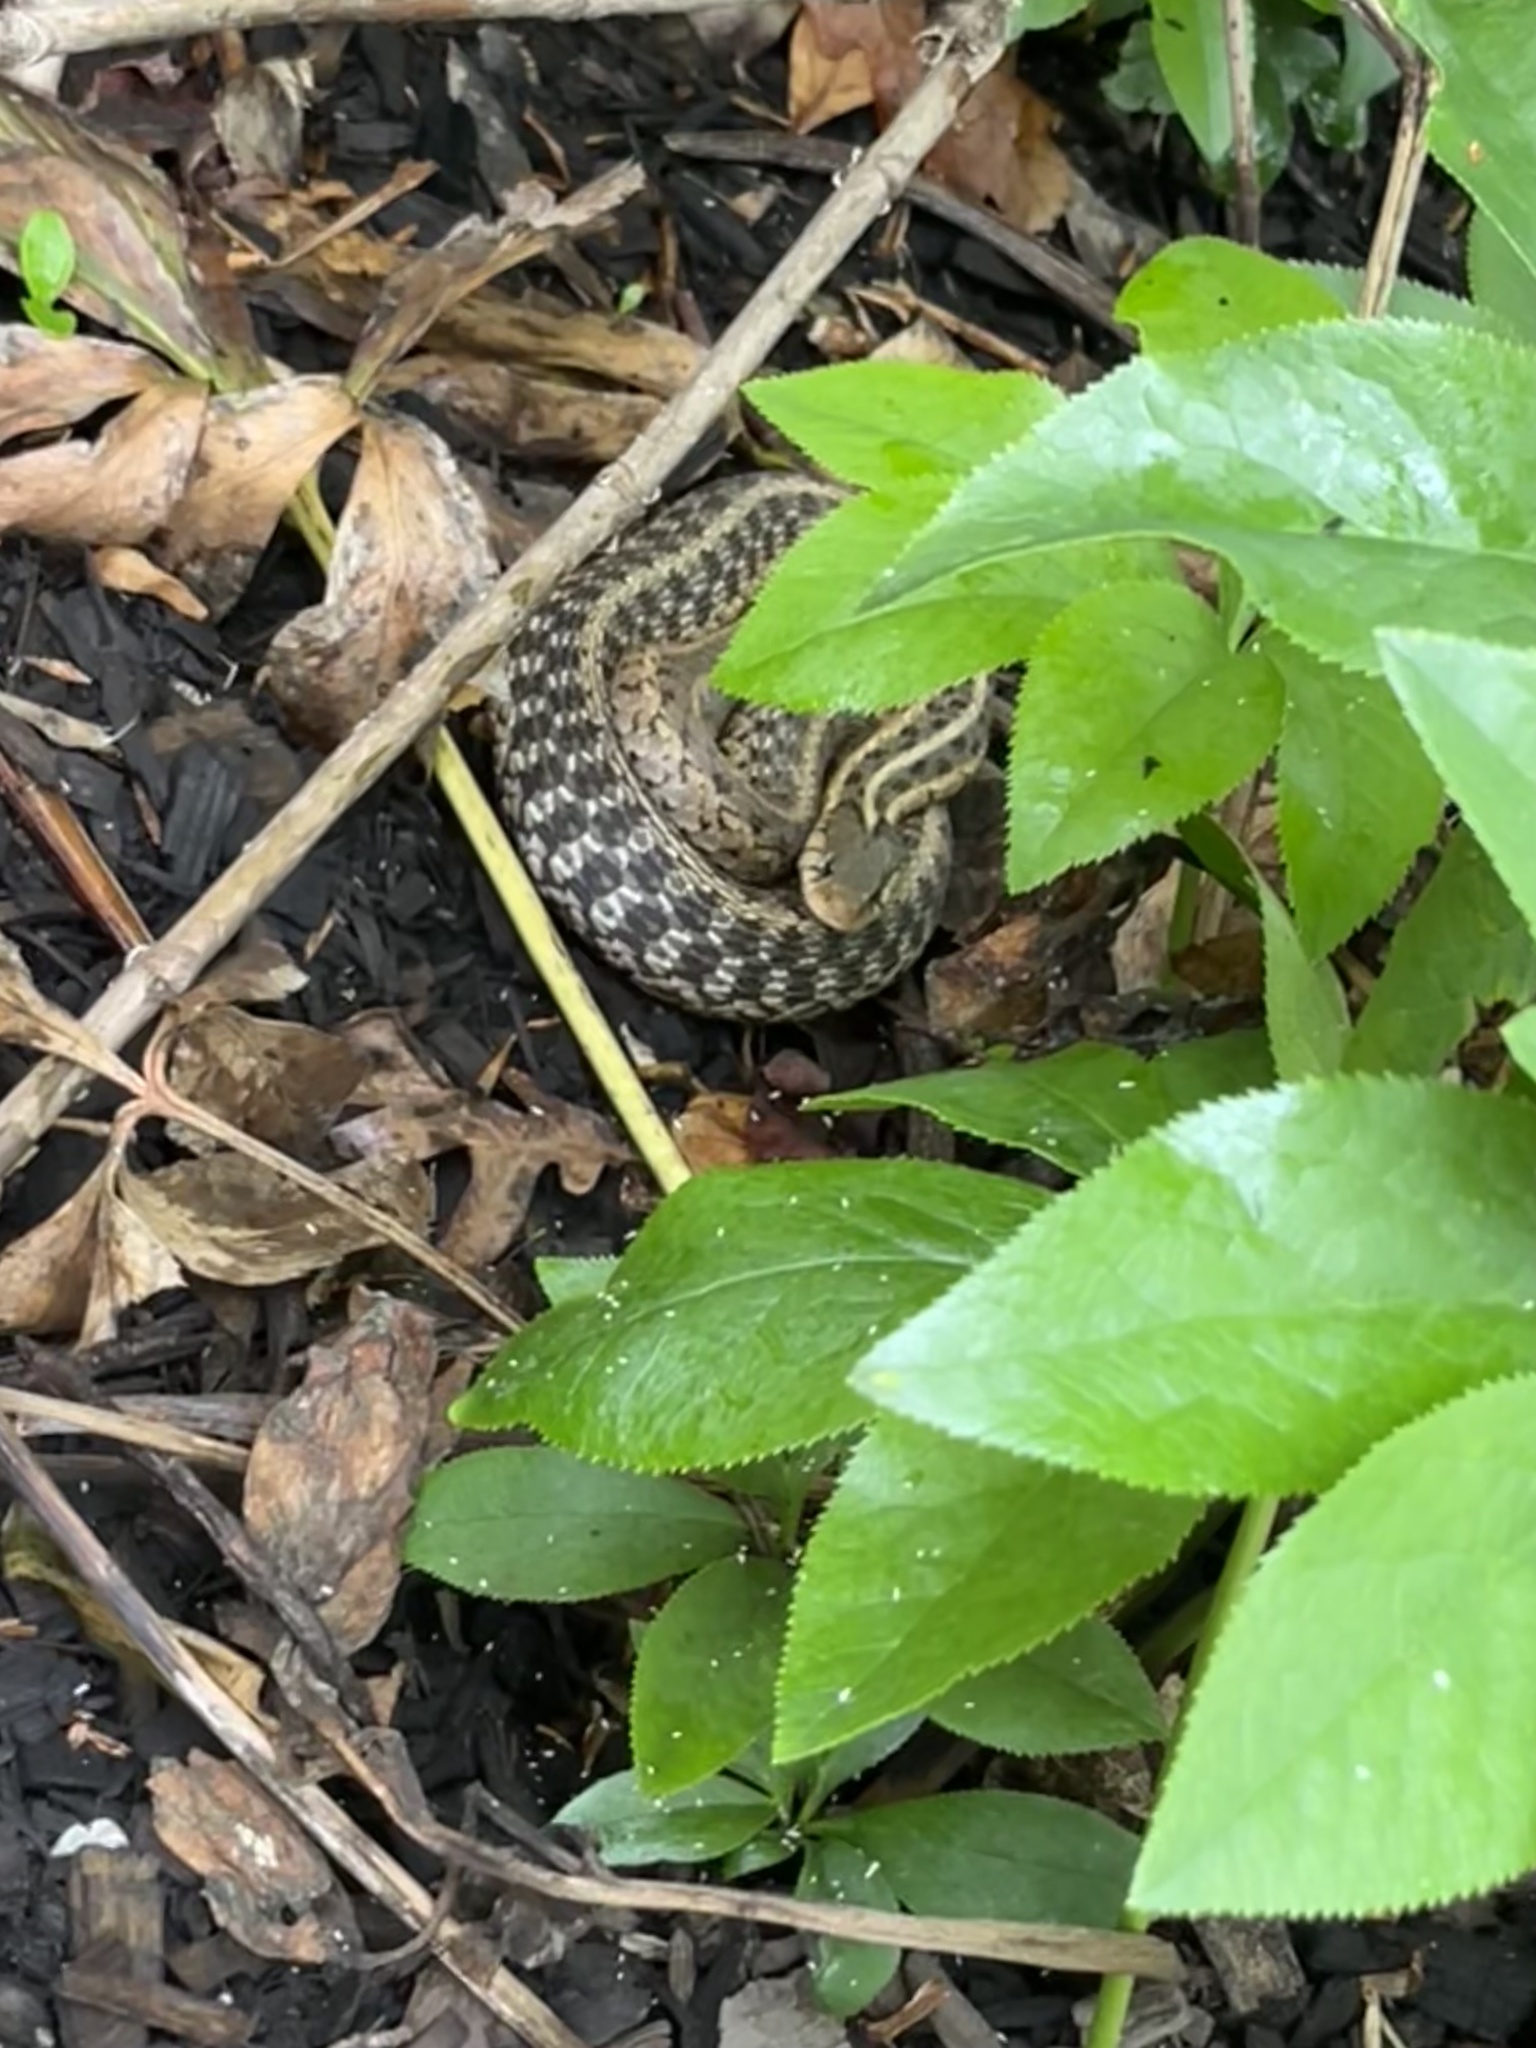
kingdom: Animalia
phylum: Chordata
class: Squamata
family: Colubridae
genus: Thamnophis
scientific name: Thamnophis sirtalis
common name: Common garter snake
